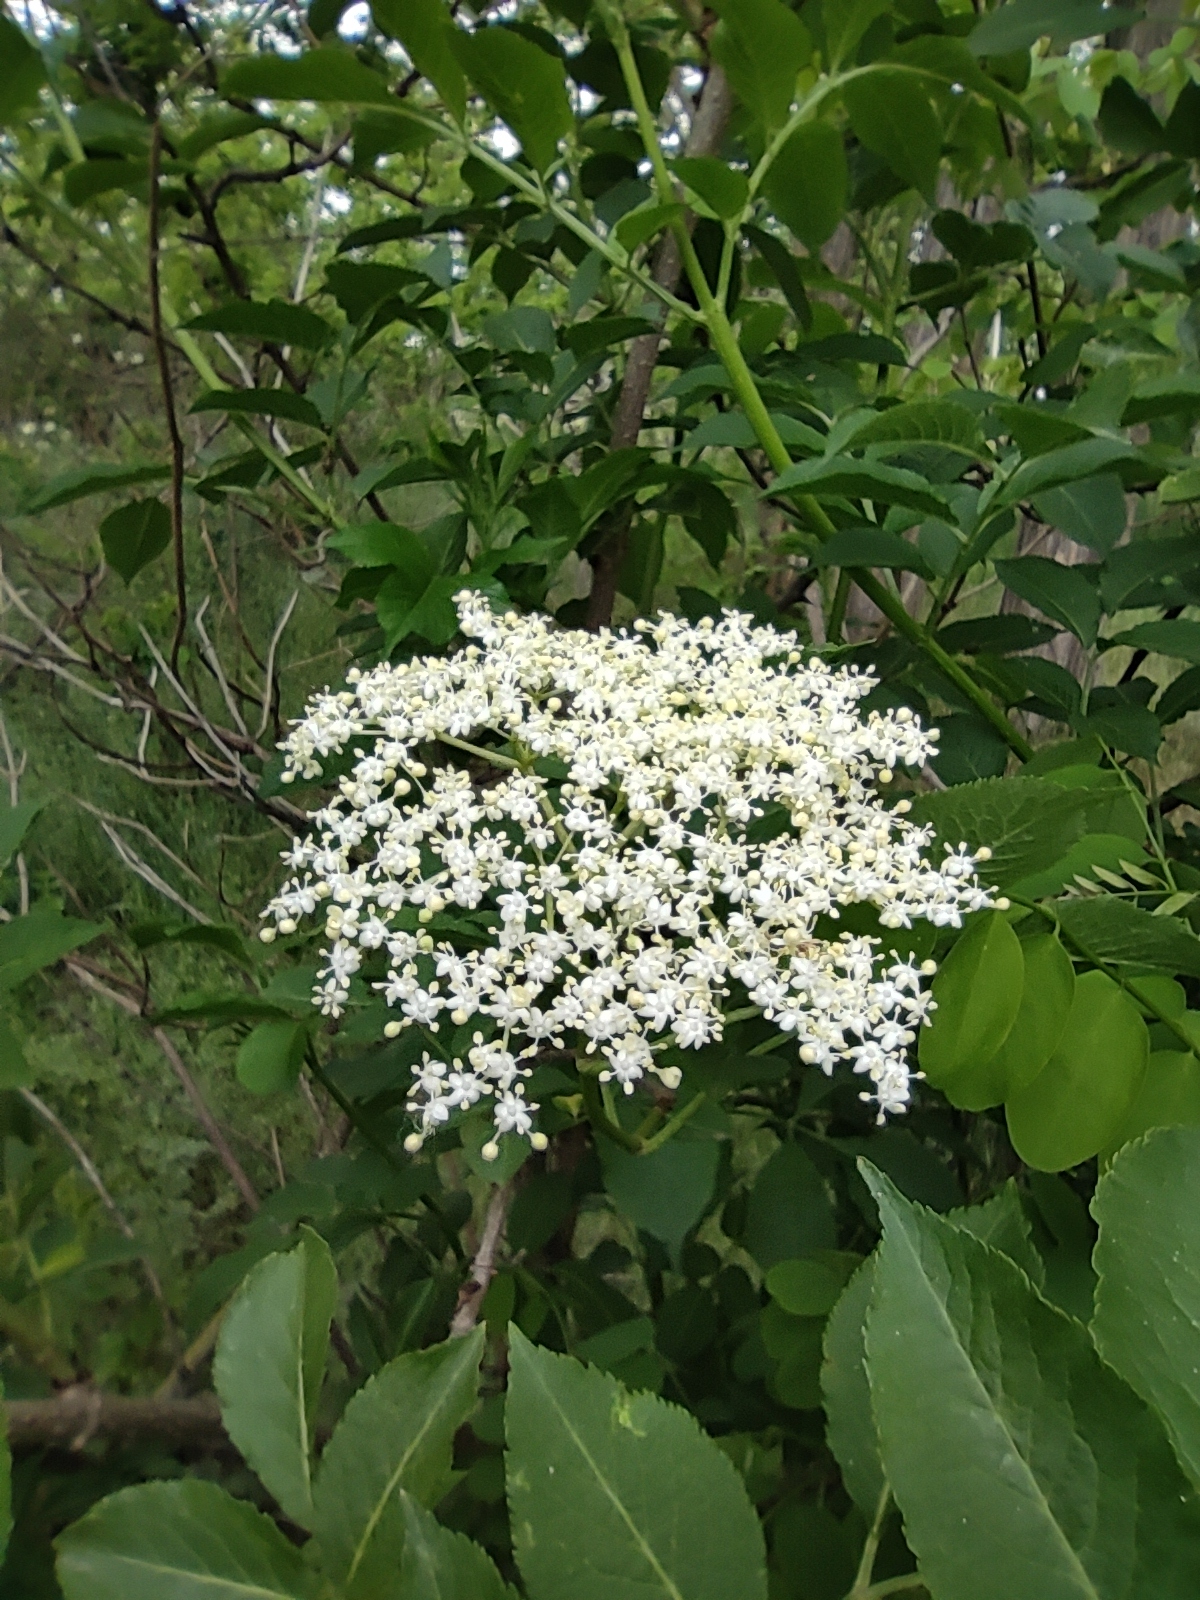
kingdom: Plantae
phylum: Tracheophyta
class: Magnoliopsida
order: Dipsacales
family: Viburnaceae
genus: Sambucus
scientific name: Sambucus nigra
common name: Elder
